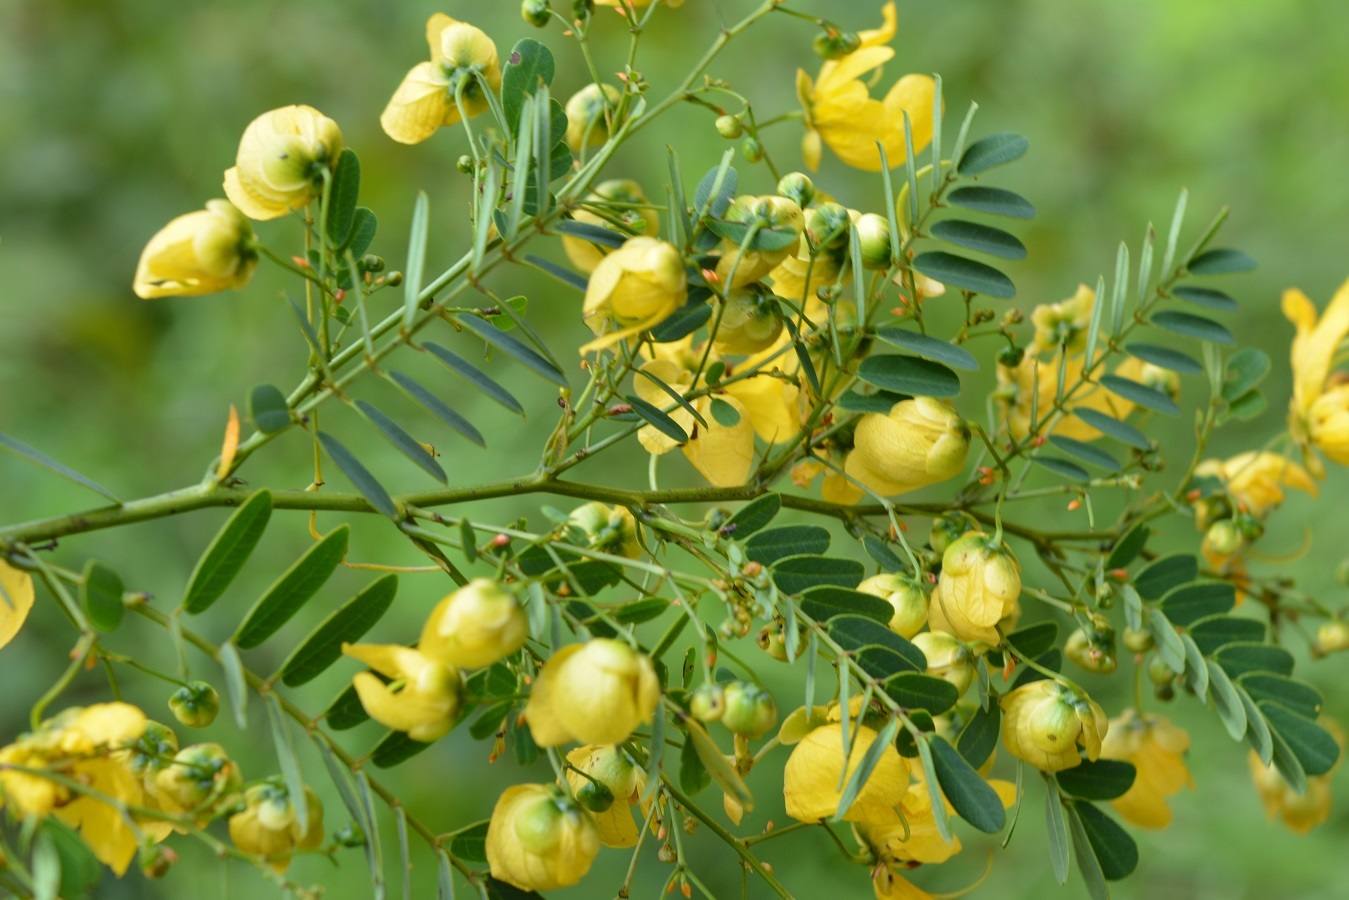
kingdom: Plantae
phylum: Tracheophyta
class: Magnoliopsida
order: Fabales
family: Fabaceae
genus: Senna
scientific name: Senna pallida
